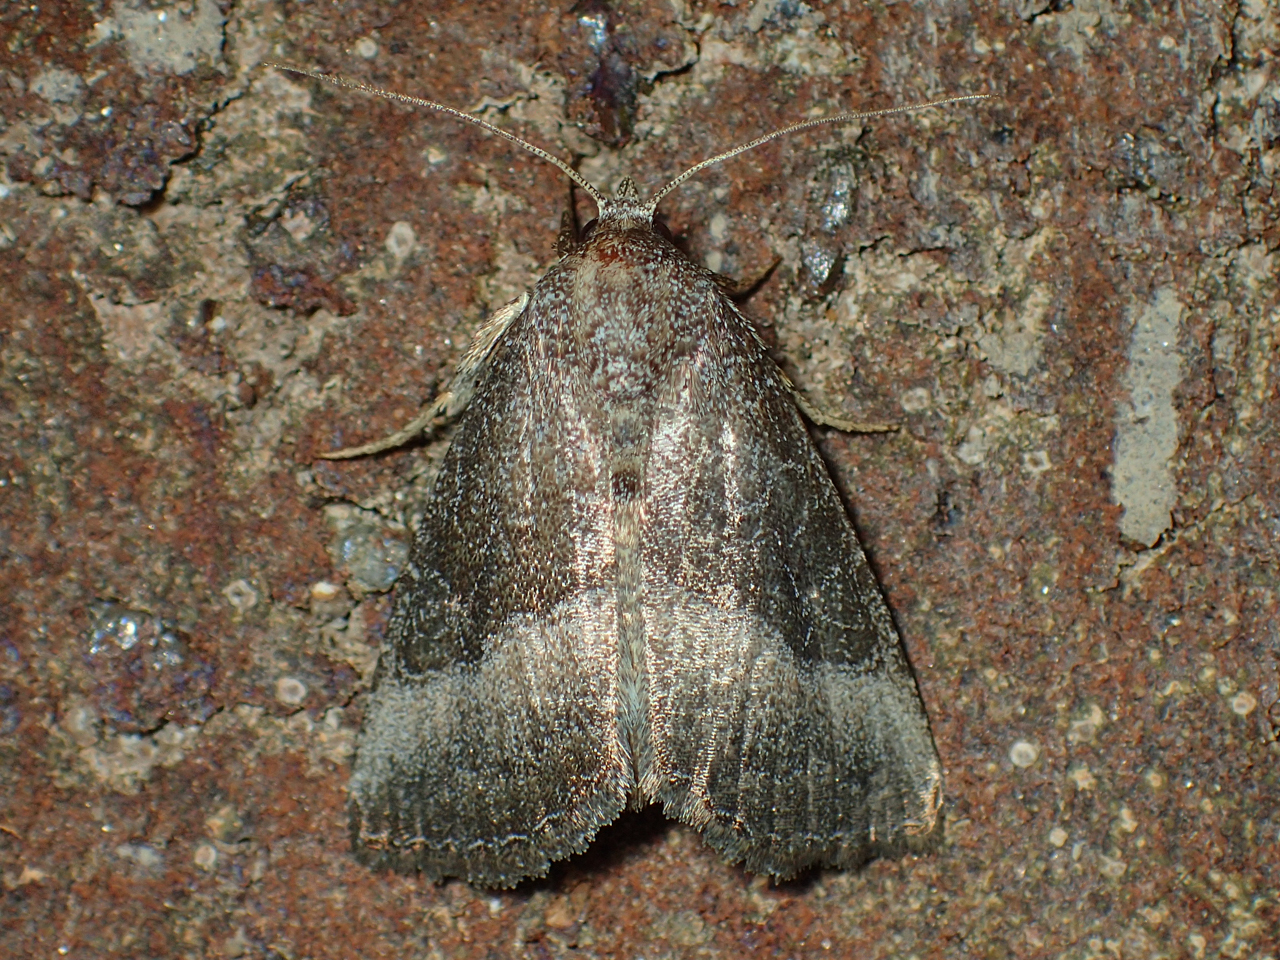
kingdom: Animalia
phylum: Arthropoda
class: Insecta
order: Lepidoptera
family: Noctuidae
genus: Ogdoconta
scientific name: Ogdoconta cinereola
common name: Common pinkband
